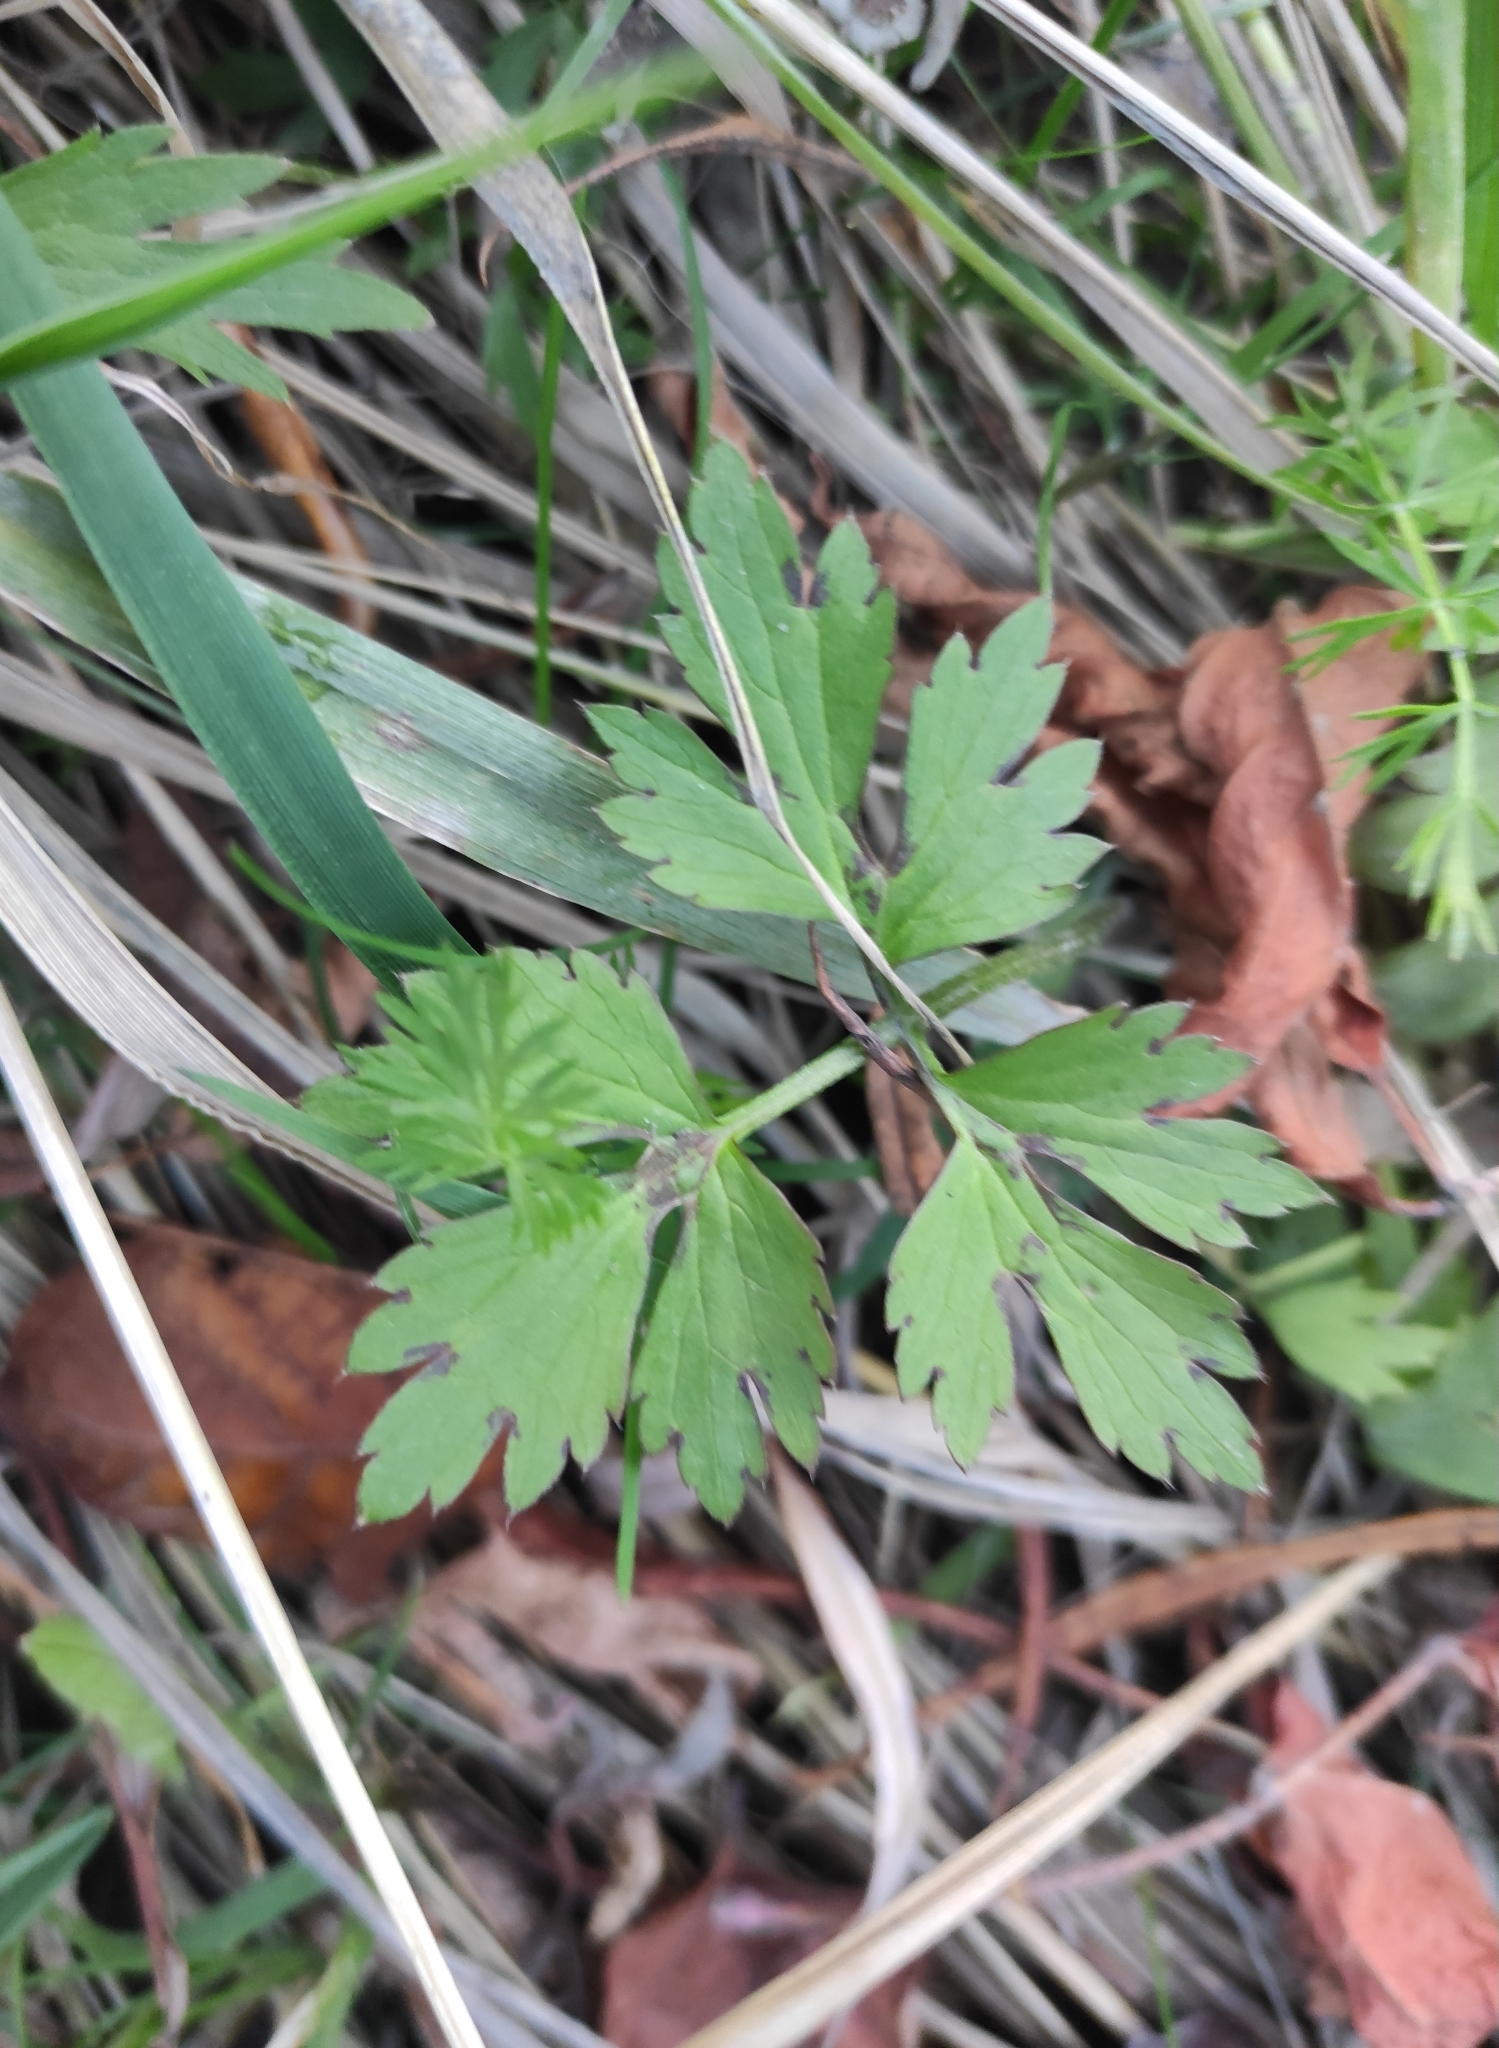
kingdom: Plantae
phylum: Tracheophyta
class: Magnoliopsida
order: Ranunculales
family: Ranunculaceae
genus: Ranunculus
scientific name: Ranunculus repens
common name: Creeping buttercup
